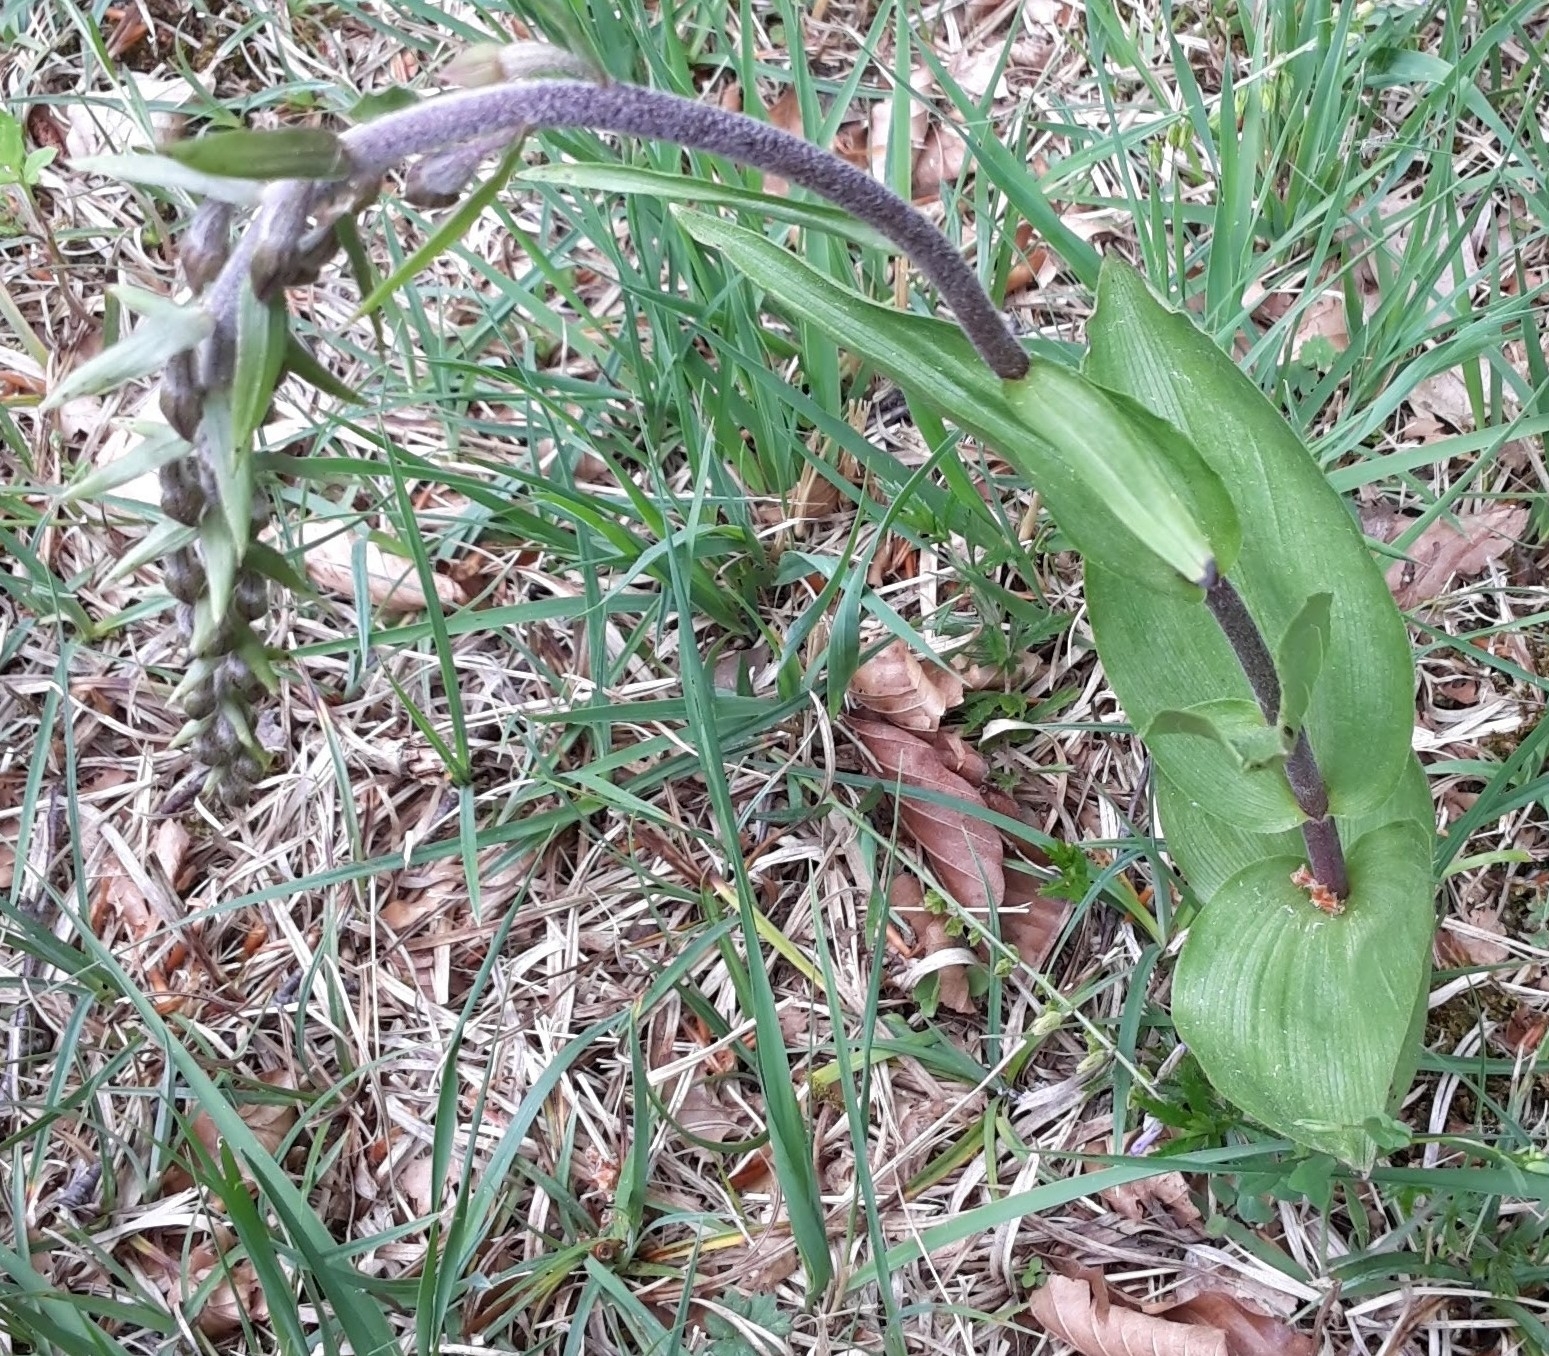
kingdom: Plantae
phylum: Tracheophyta
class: Liliopsida
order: Asparagales
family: Orchidaceae
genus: Epipactis
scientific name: Epipactis atrorubens
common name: Dark-red helleborine
